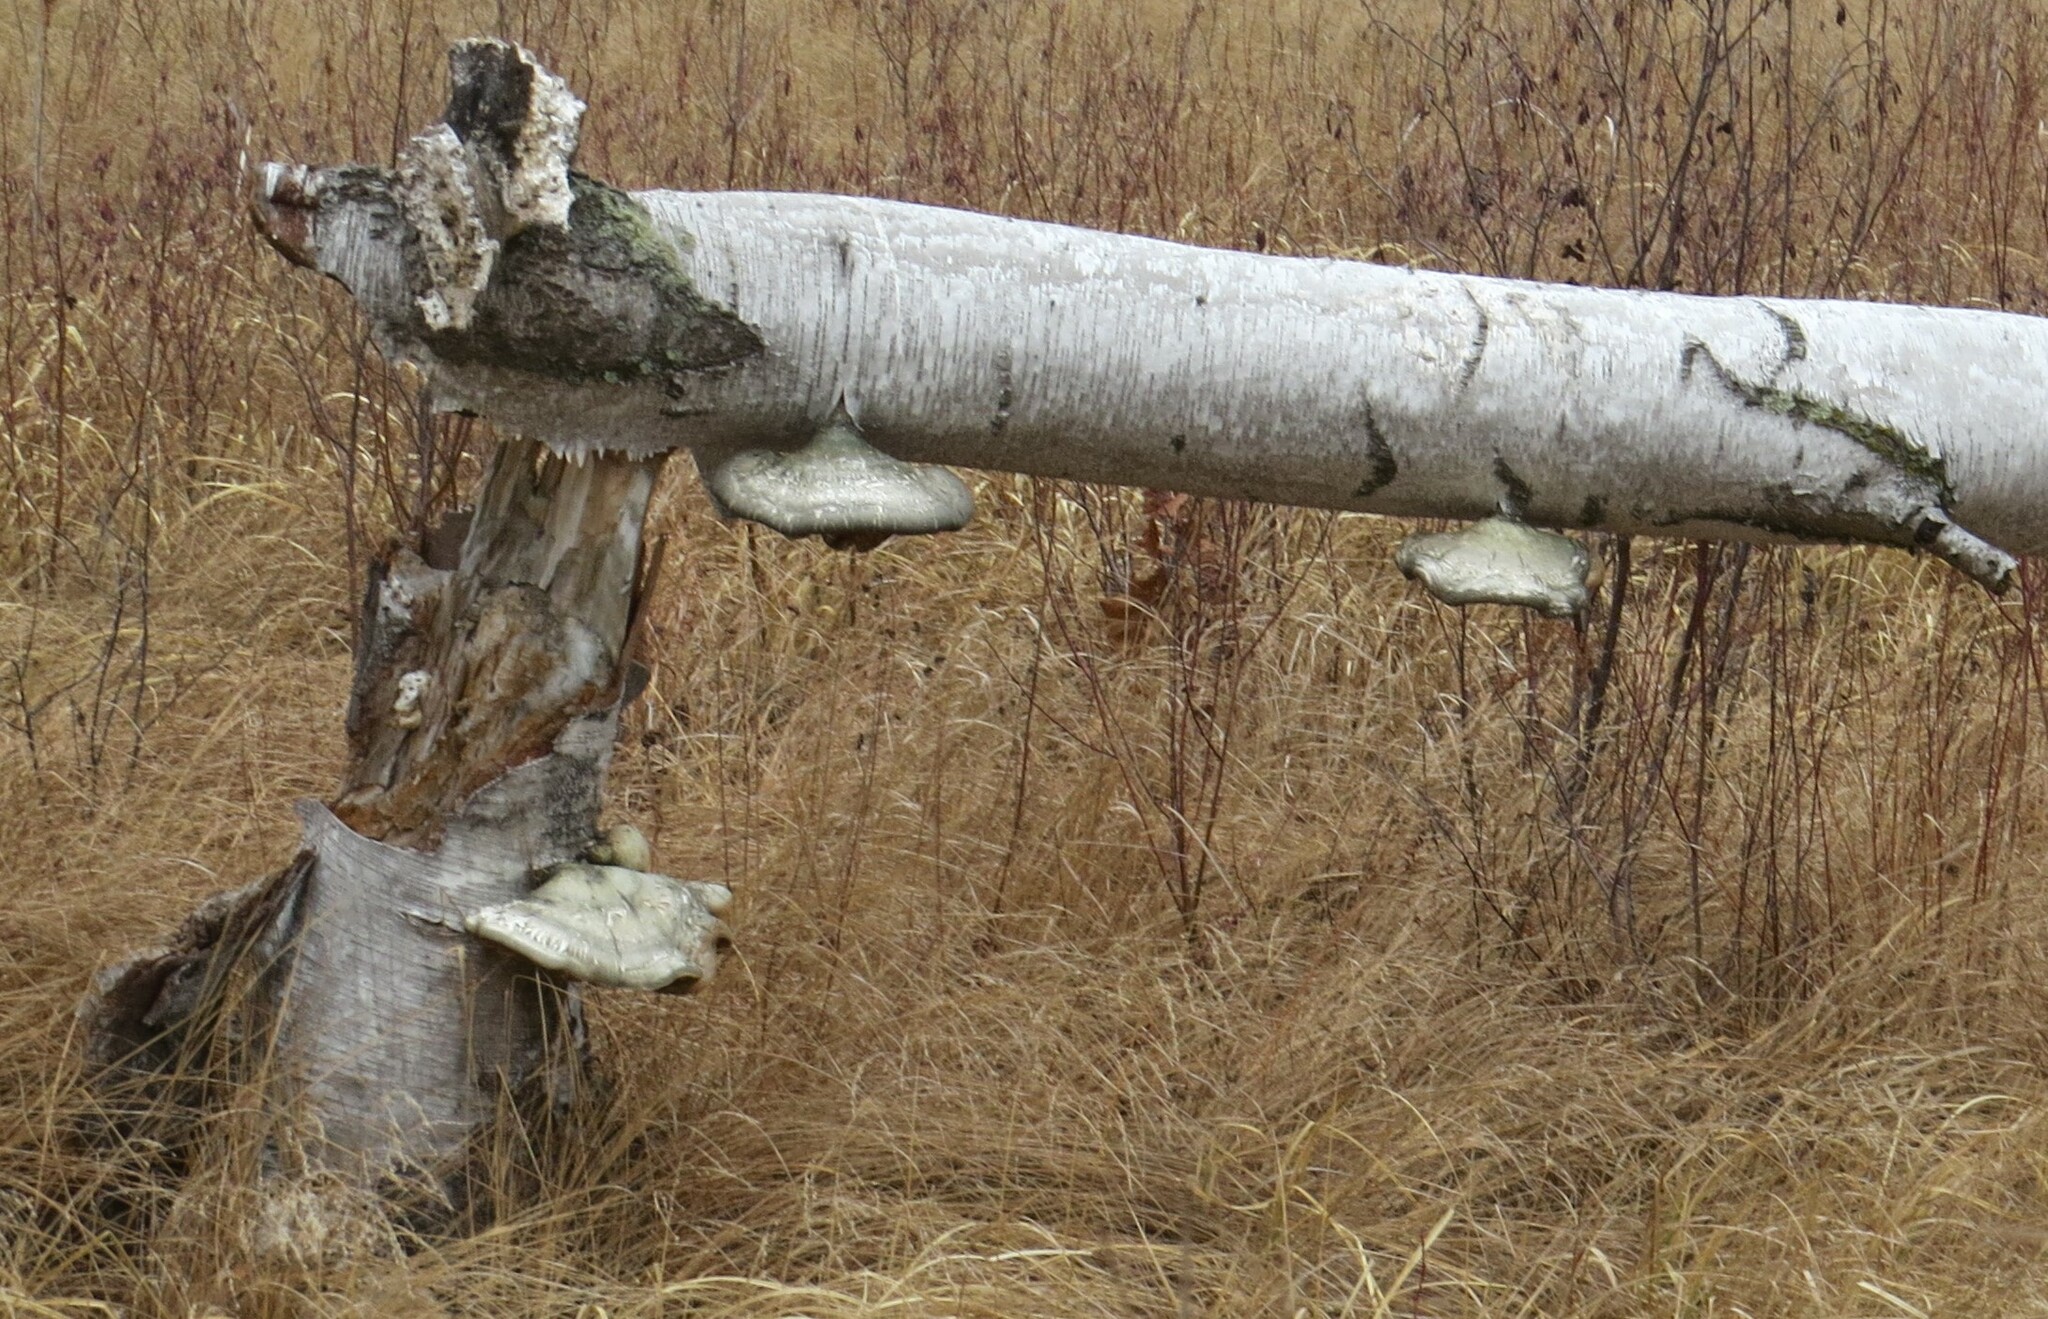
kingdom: Fungi
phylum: Basidiomycota
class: Agaricomycetes
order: Polyporales
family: Fomitopsidaceae
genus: Fomitopsis
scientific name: Fomitopsis betulina
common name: Birch polypore
